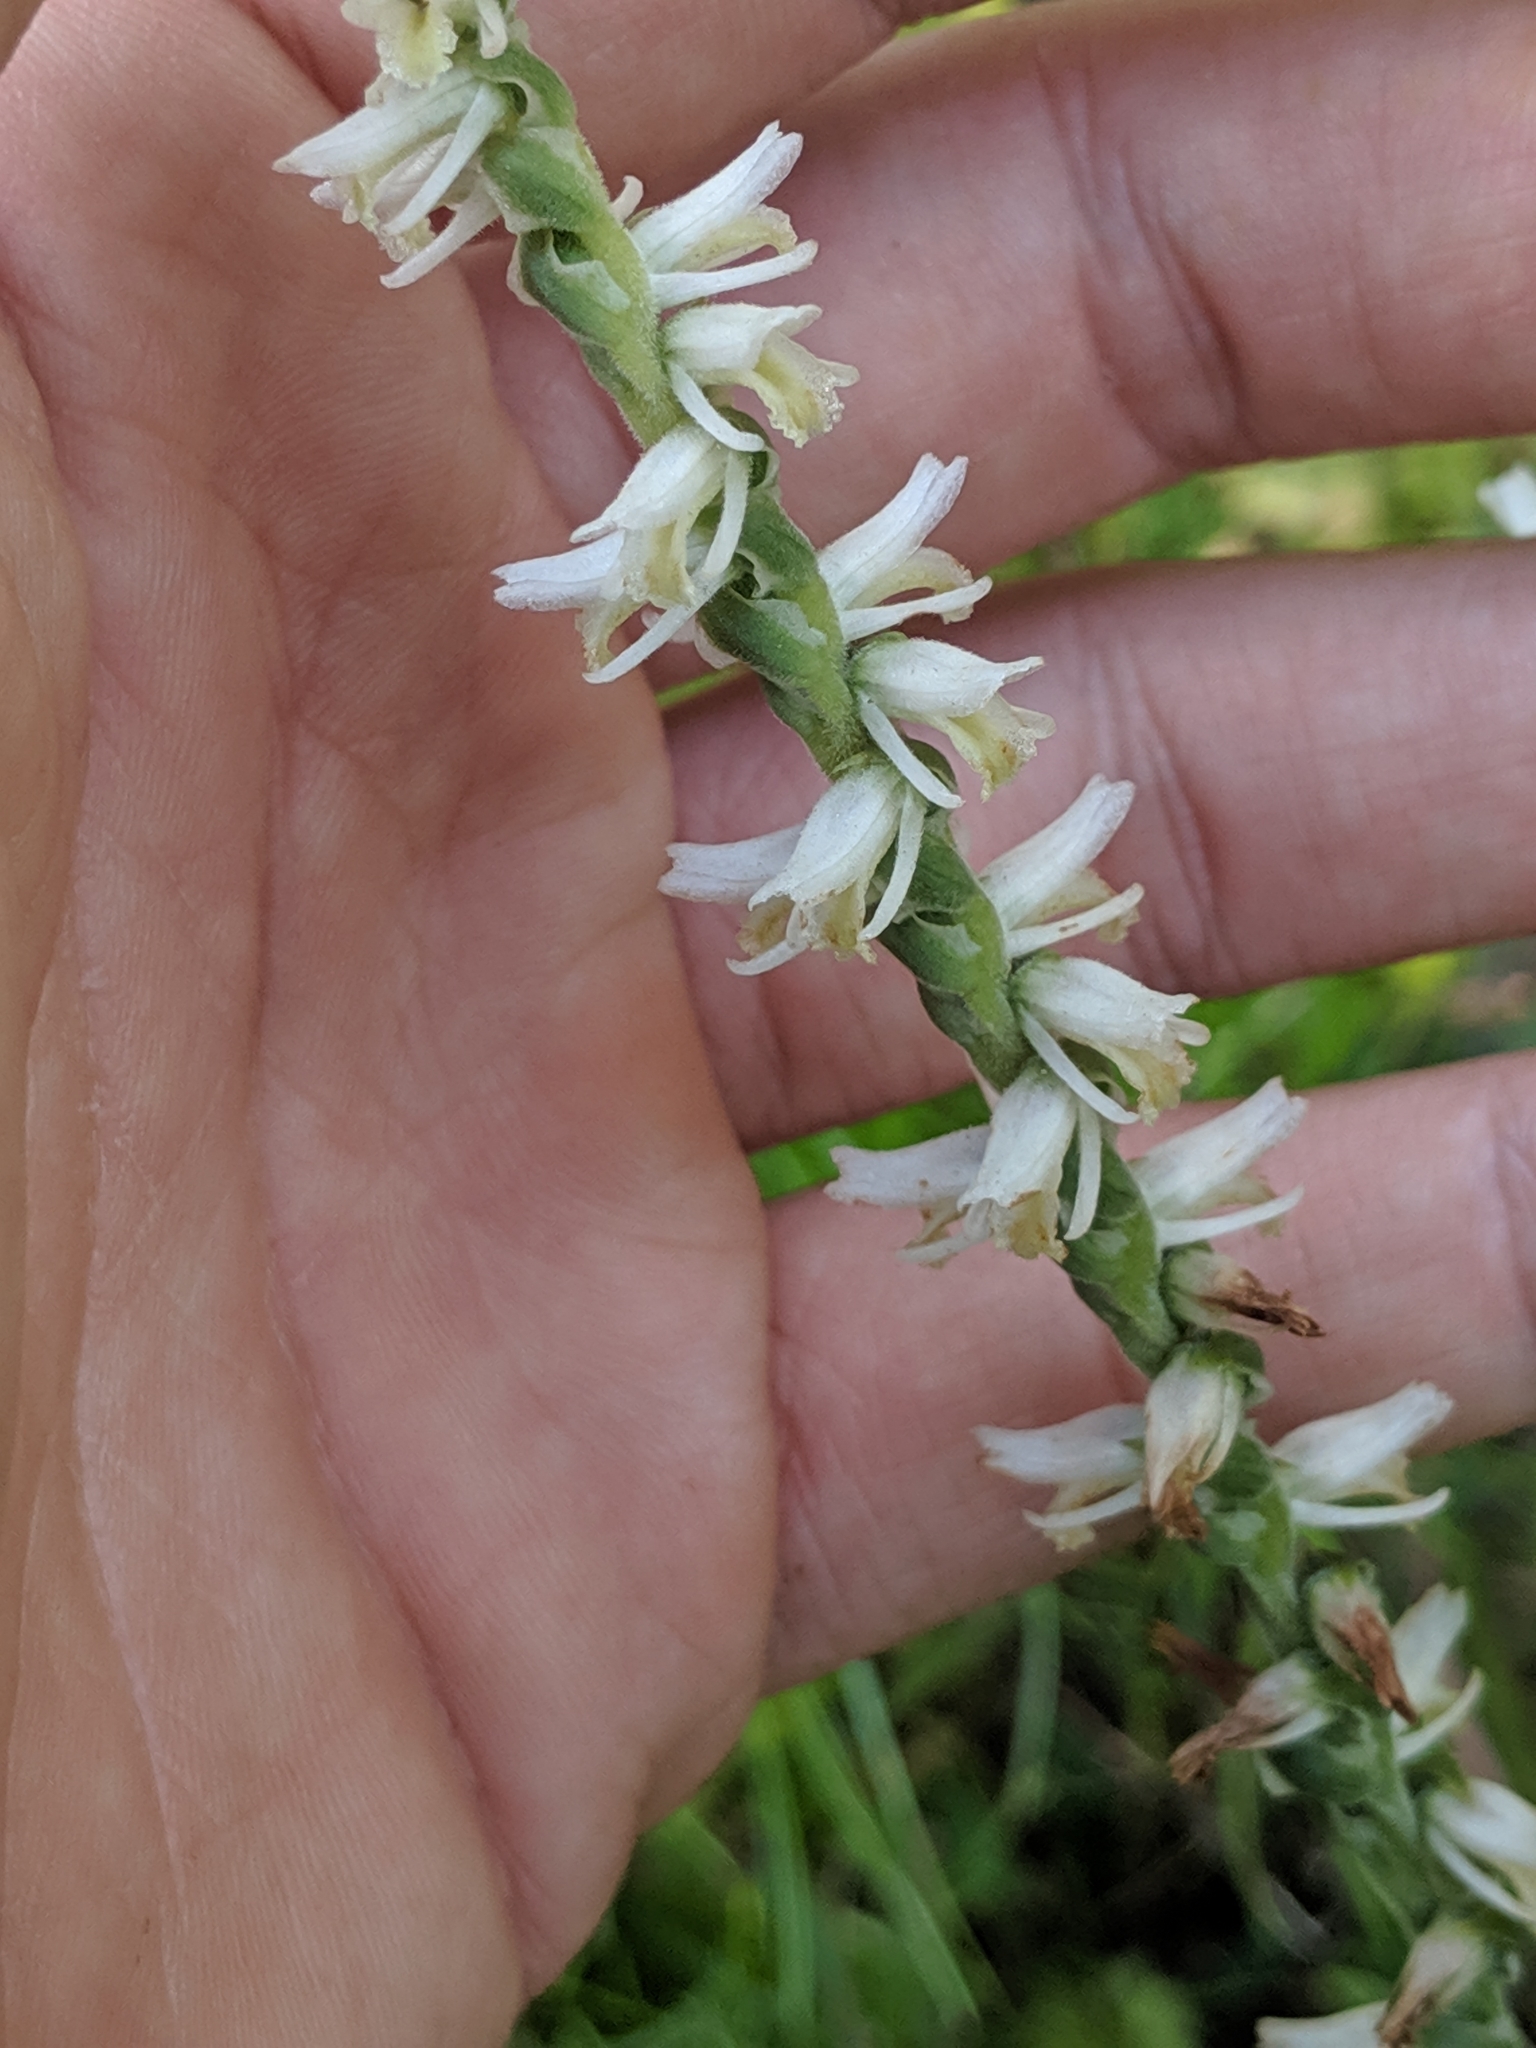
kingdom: Plantae
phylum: Tracheophyta
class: Liliopsida
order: Asparagales
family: Orchidaceae
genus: Spiranthes
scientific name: Spiranthes vernalis
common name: Spring ladies'-tresses
